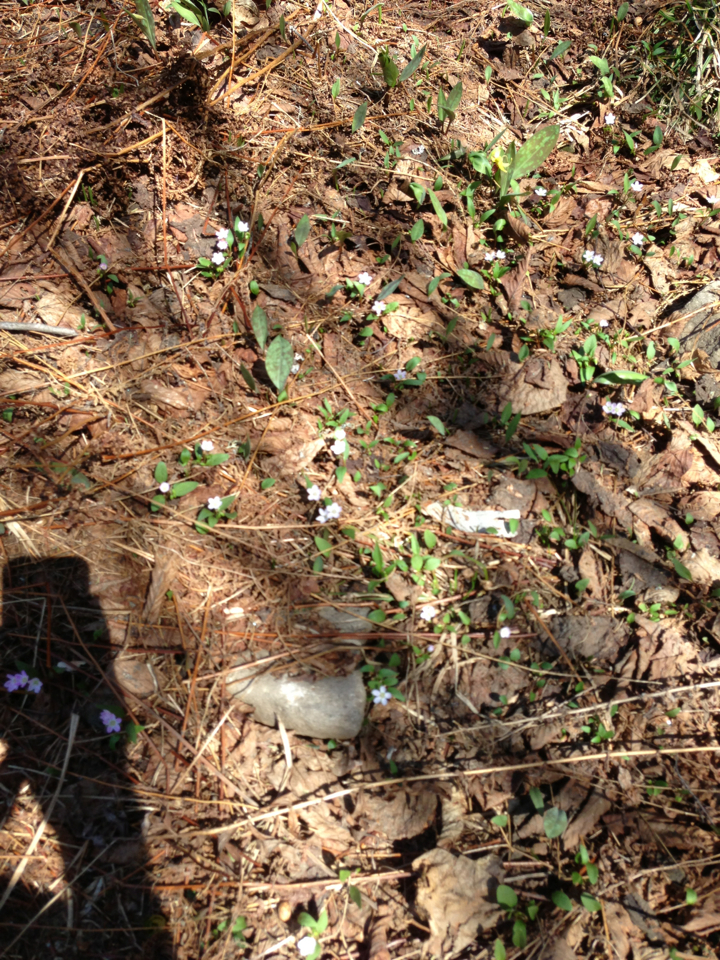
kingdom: Plantae
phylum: Tracheophyta
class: Magnoliopsida
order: Caryophyllales
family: Montiaceae
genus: Claytonia
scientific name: Claytonia caroliniana
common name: Carolina spring beauty
